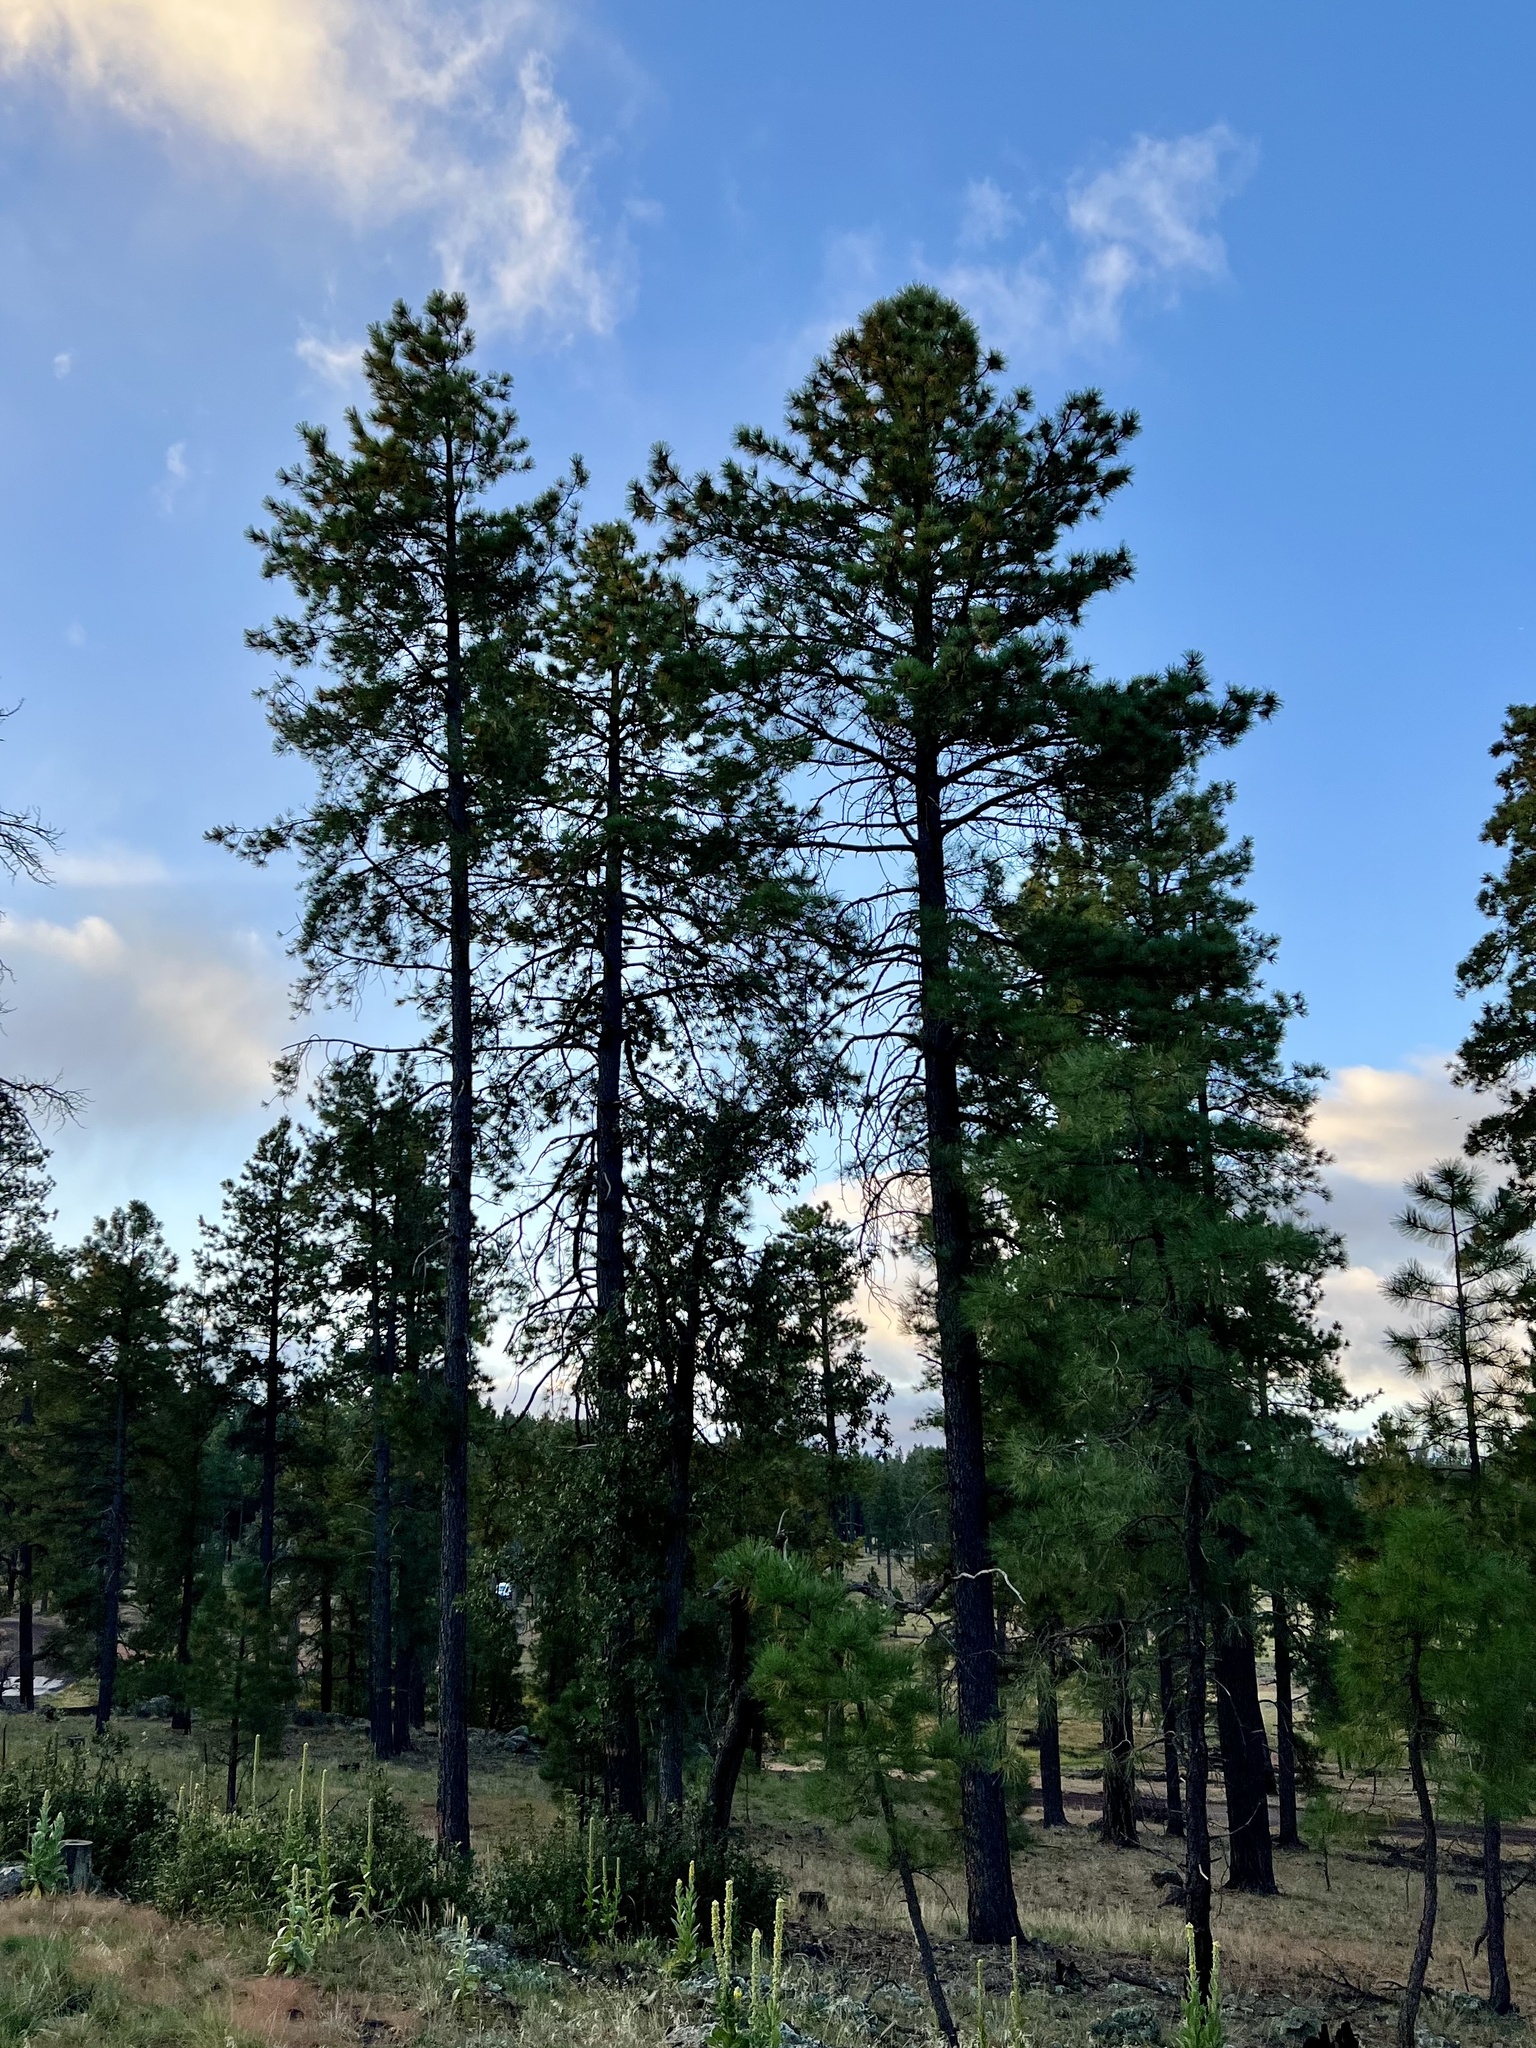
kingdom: Plantae
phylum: Tracheophyta
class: Pinopsida
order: Pinales
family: Pinaceae
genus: Pinus
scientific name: Pinus ponderosa
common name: Western yellow-pine
